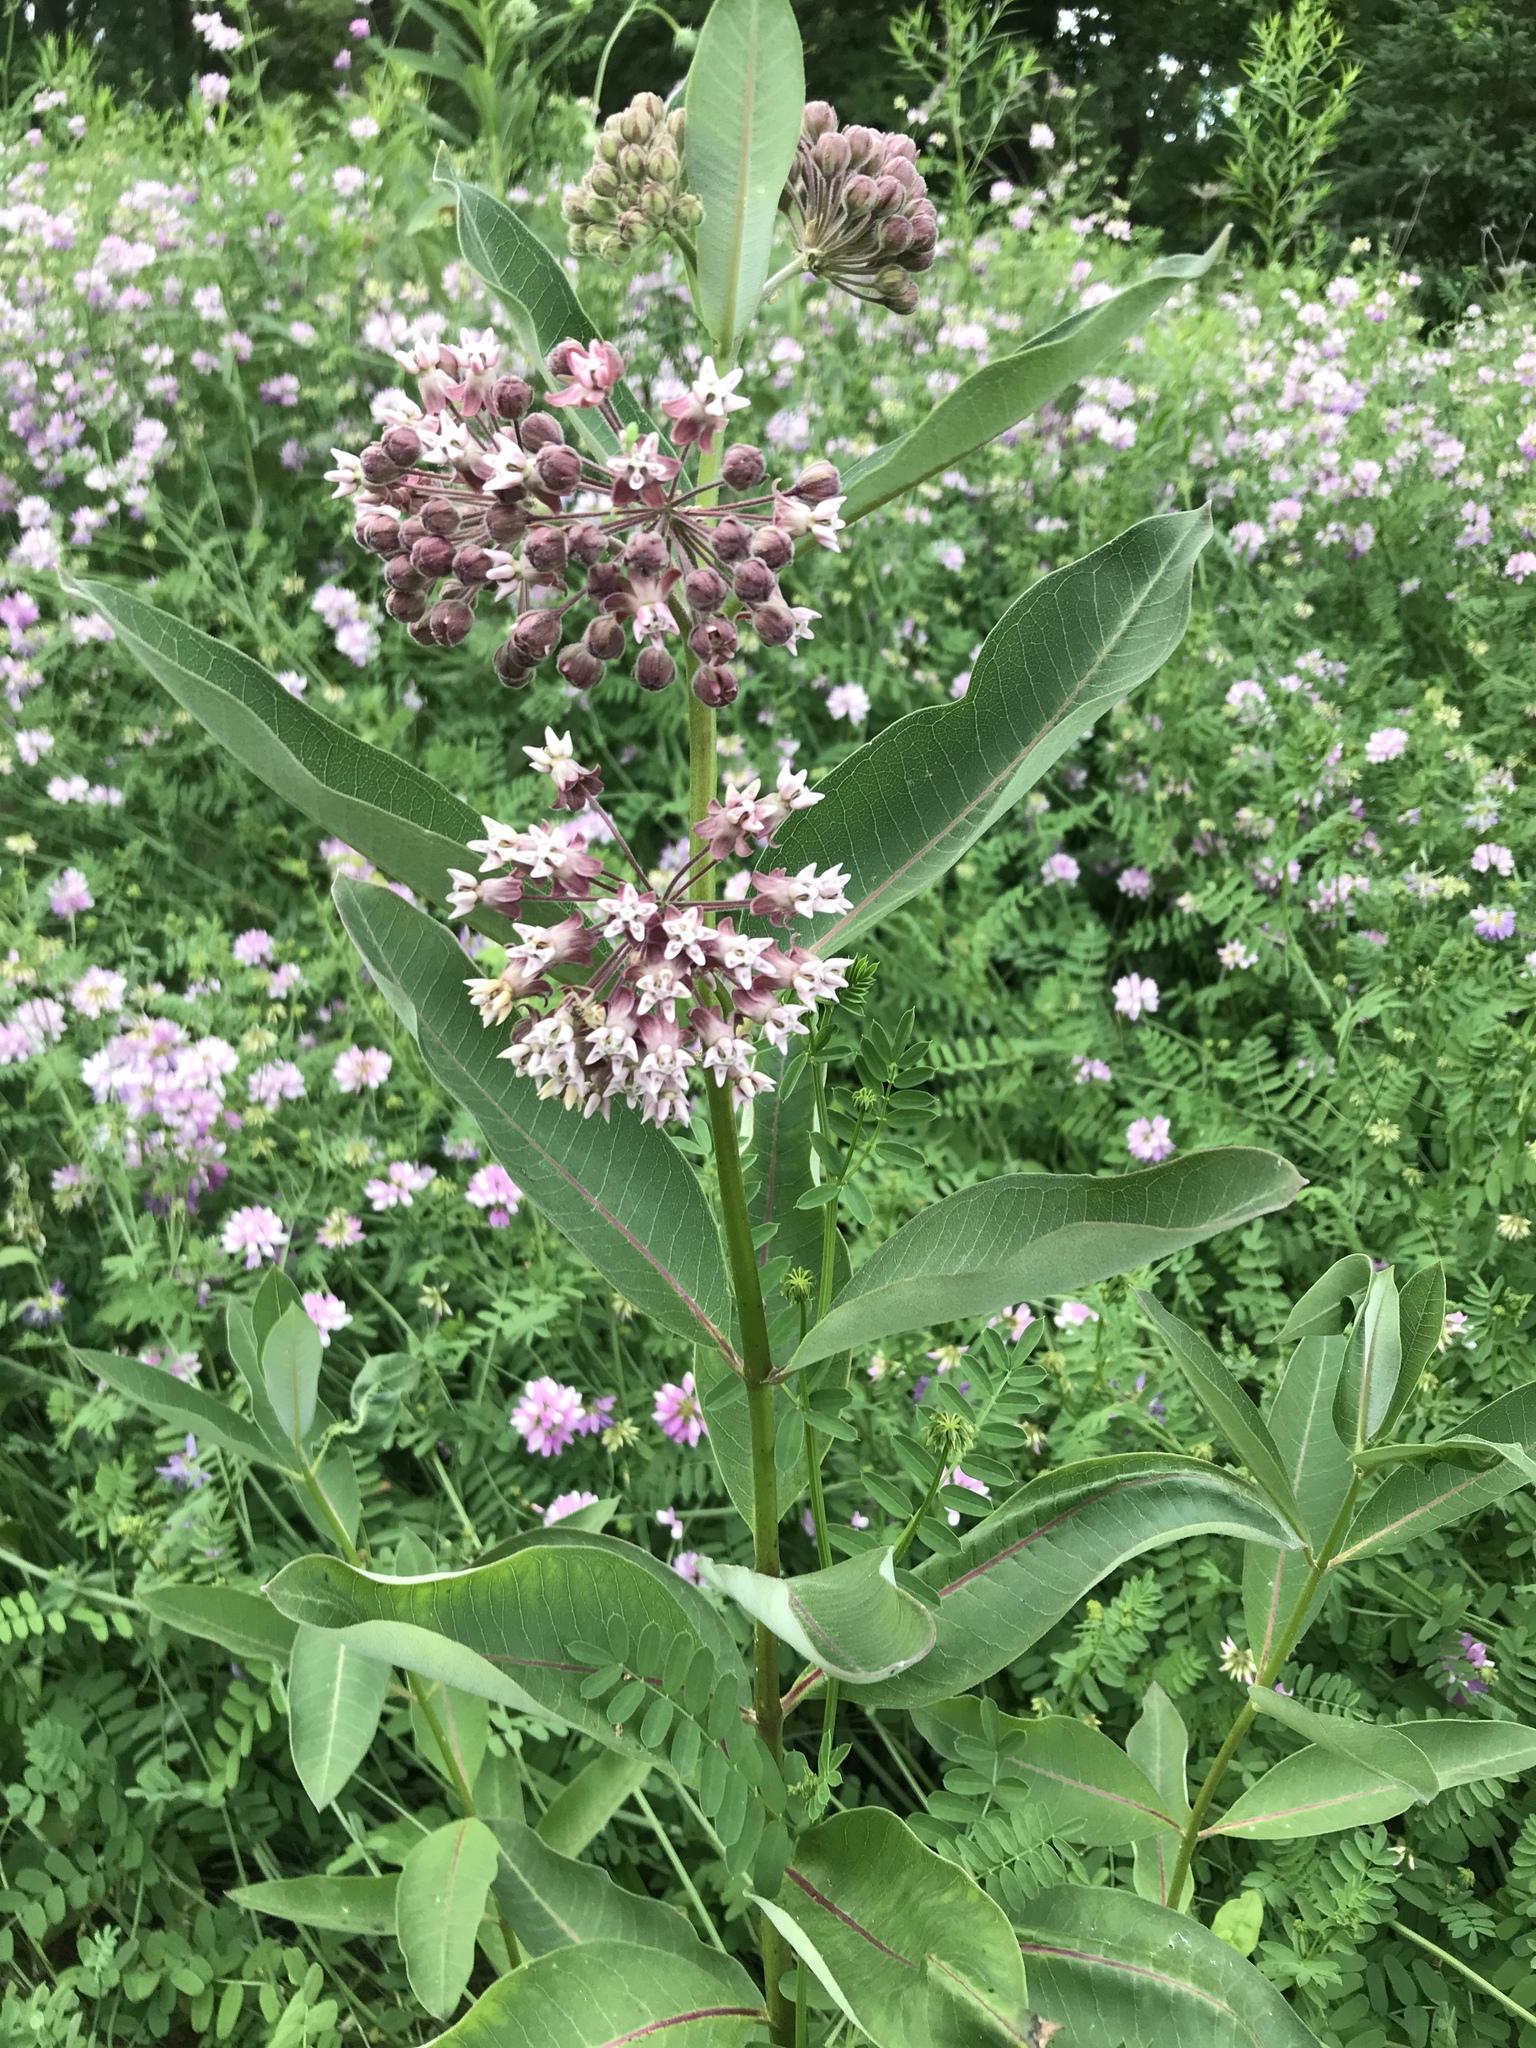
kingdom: Plantae
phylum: Tracheophyta
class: Magnoliopsida
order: Gentianales
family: Apocynaceae
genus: Asclepias
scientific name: Asclepias syriaca
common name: Common milkweed
